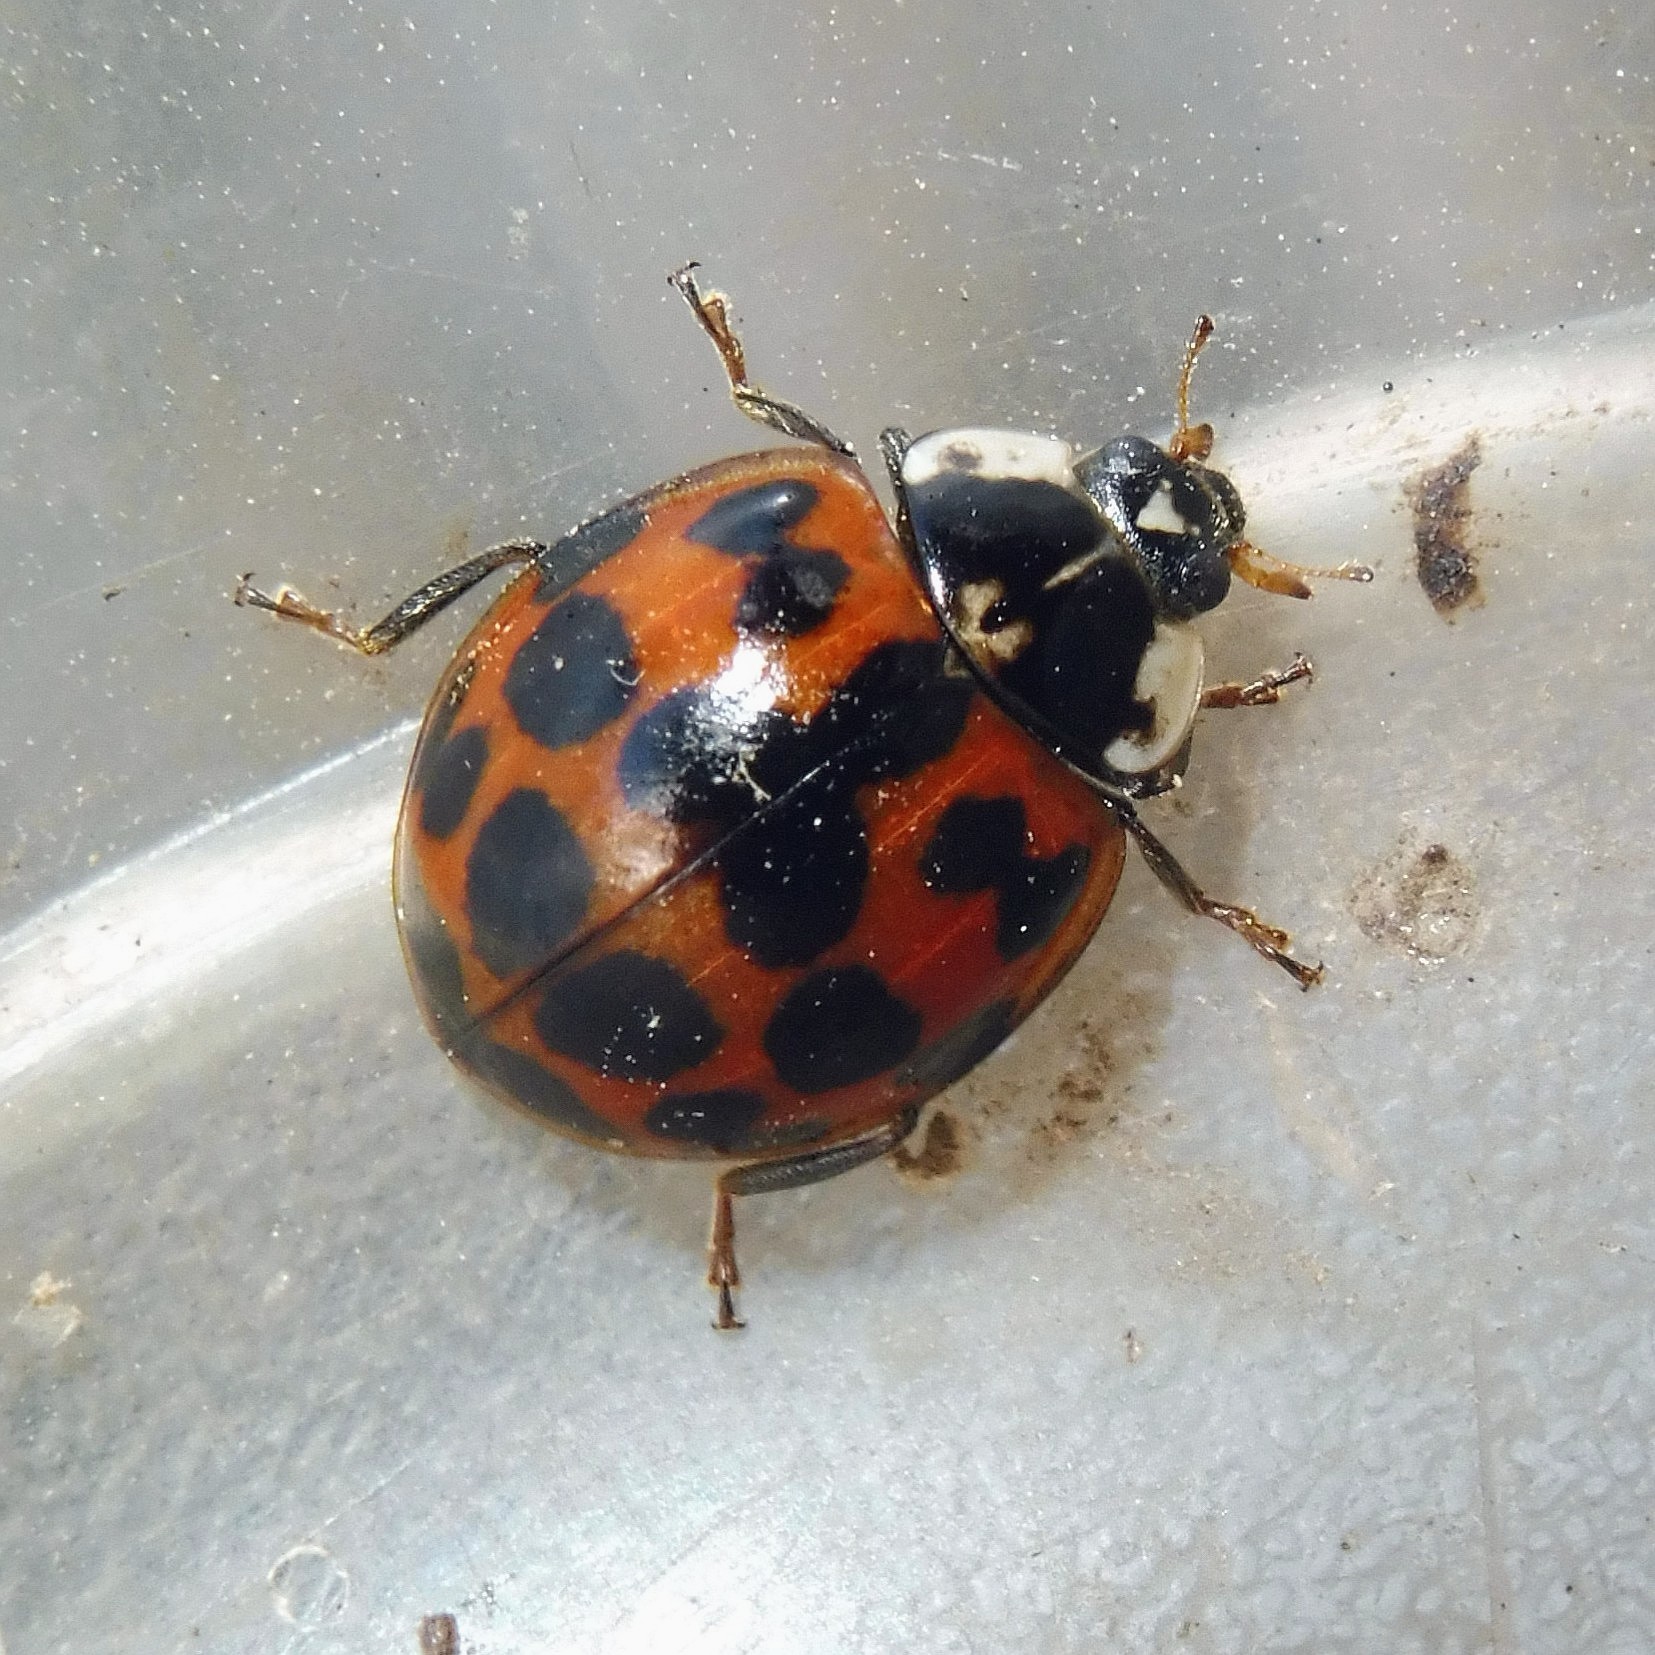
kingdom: Animalia
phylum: Arthropoda
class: Insecta
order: Coleoptera
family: Coccinellidae
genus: Harmonia
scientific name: Harmonia axyridis
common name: Harlequin ladybird
